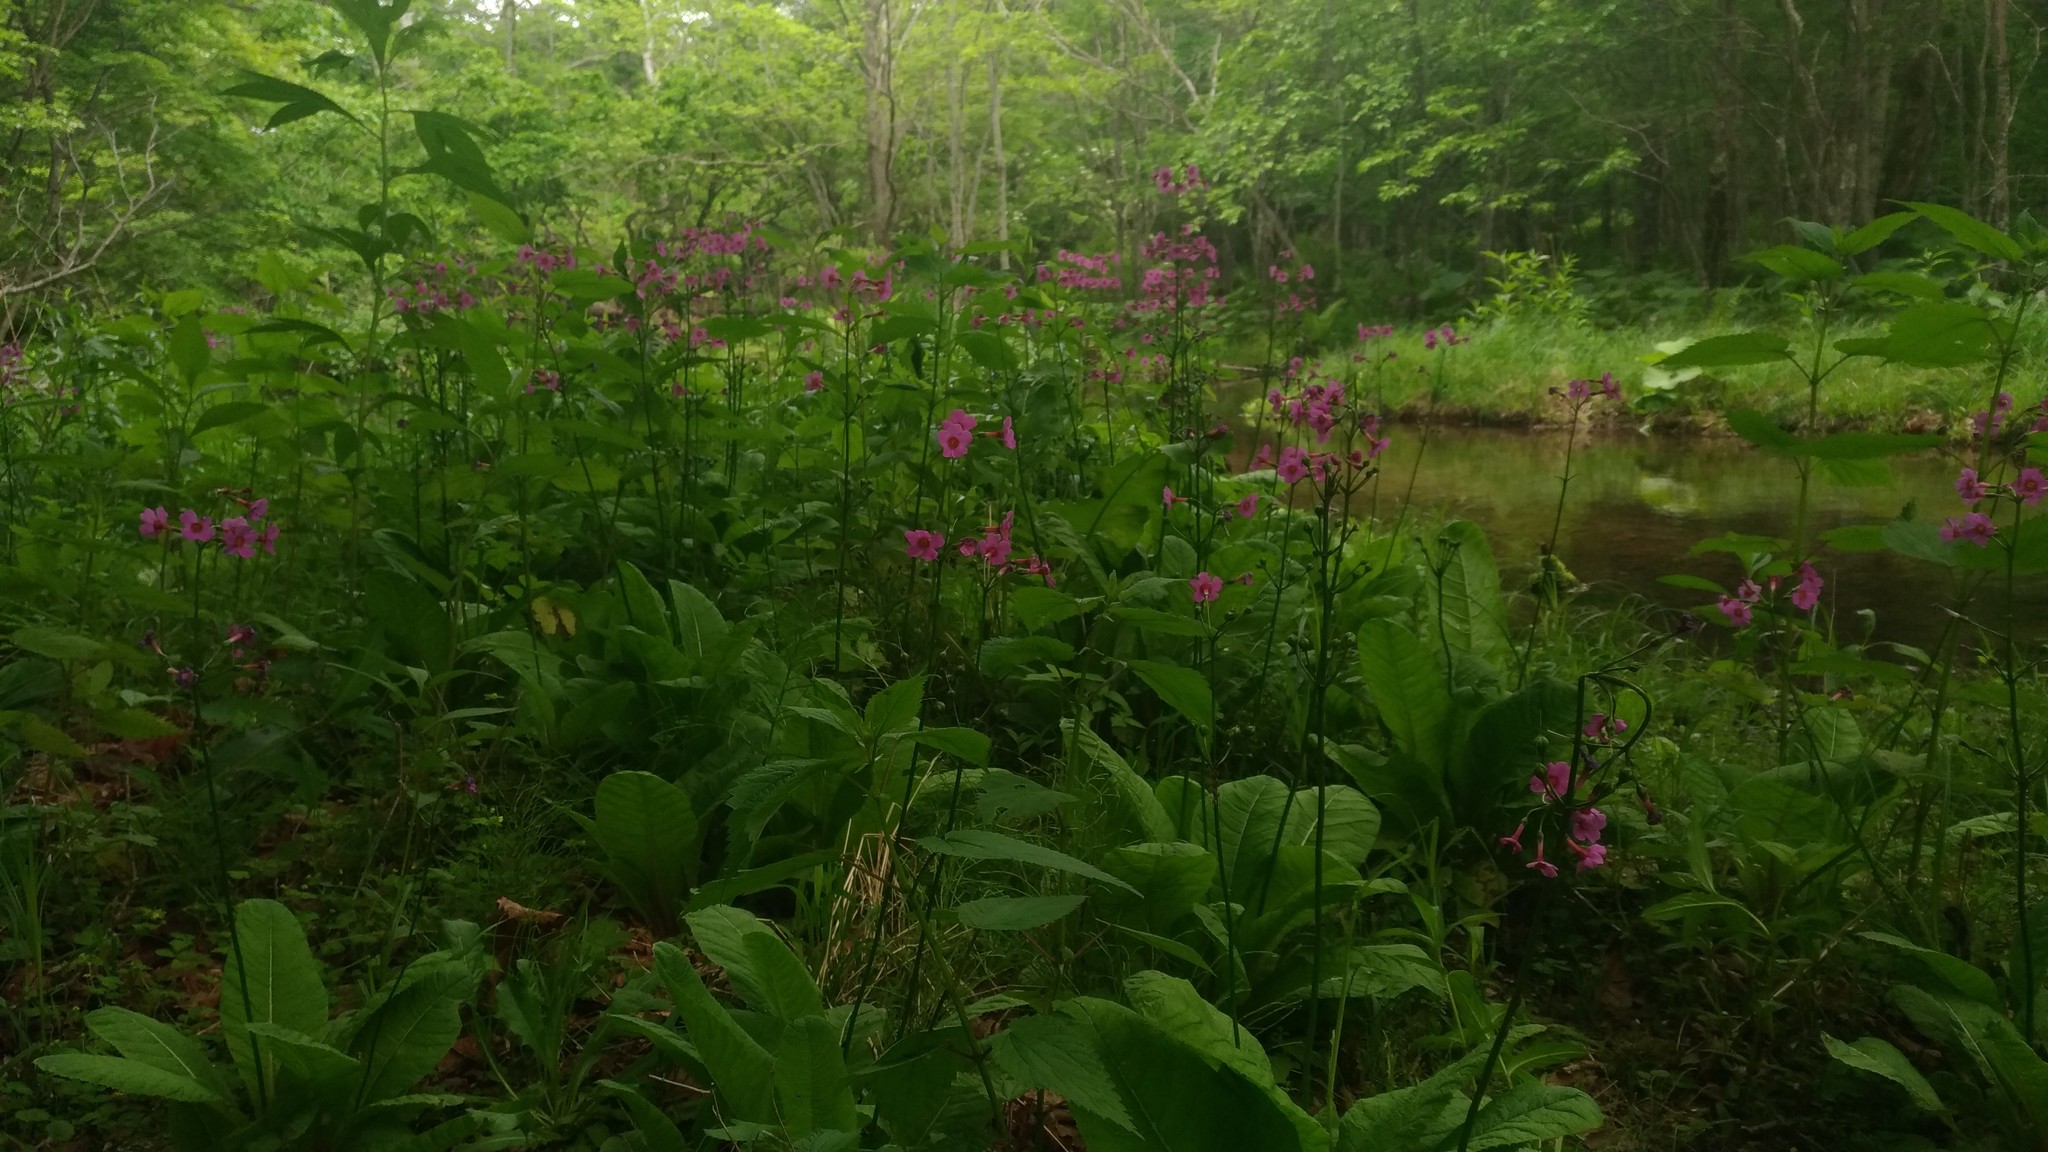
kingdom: Plantae
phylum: Tracheophyta
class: Magnoliopsida
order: Ericales
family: Primulaceae
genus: Primula
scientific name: Primula japonica
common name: Japanese cowslip
